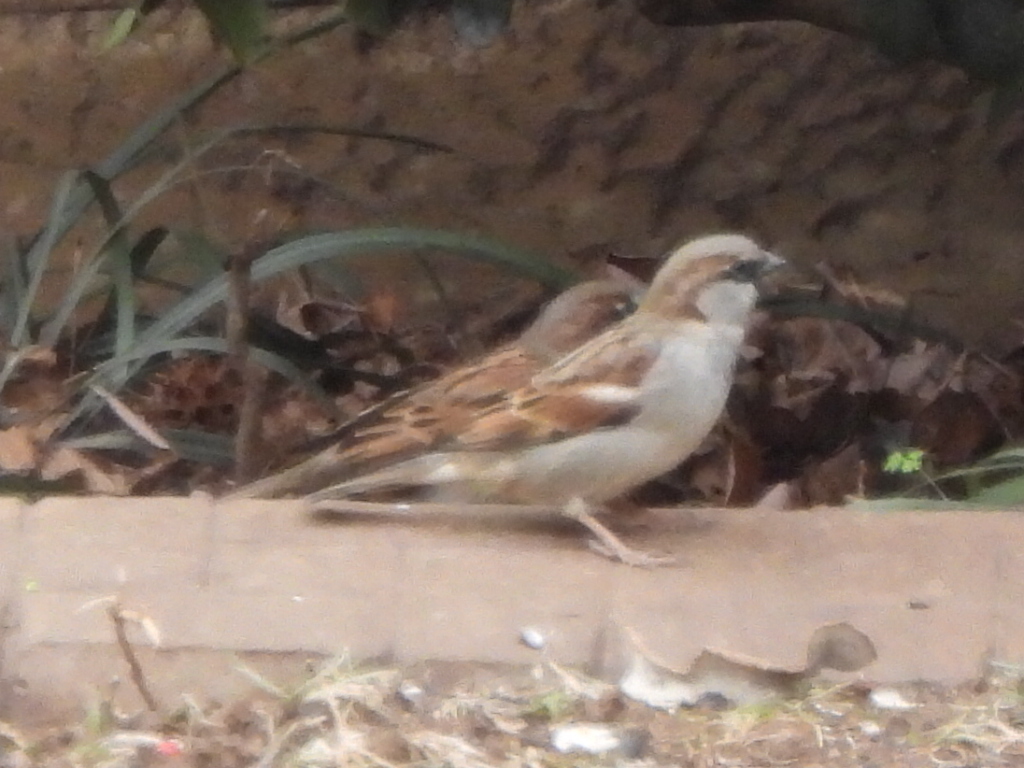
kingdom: Animalia
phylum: Chordata
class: Aves
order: Passeriformes
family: Passeridae
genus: Passer
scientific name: Passer domesticus
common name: House sparrow
